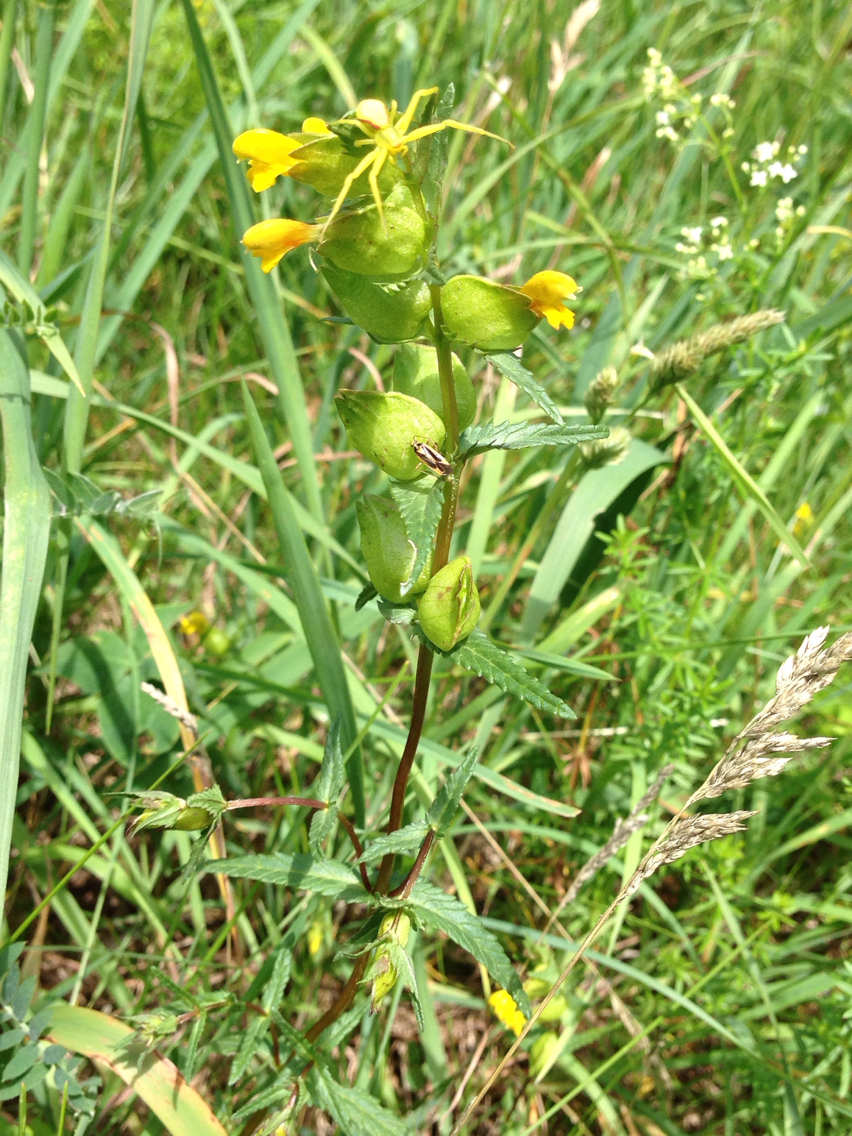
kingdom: Plantae
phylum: Tracheophyta
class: Magnoliopsida
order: Lamiales
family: Orobanchaceae
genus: Rhinanthus
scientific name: Rhinanthus minor
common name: Yellow-rattle
